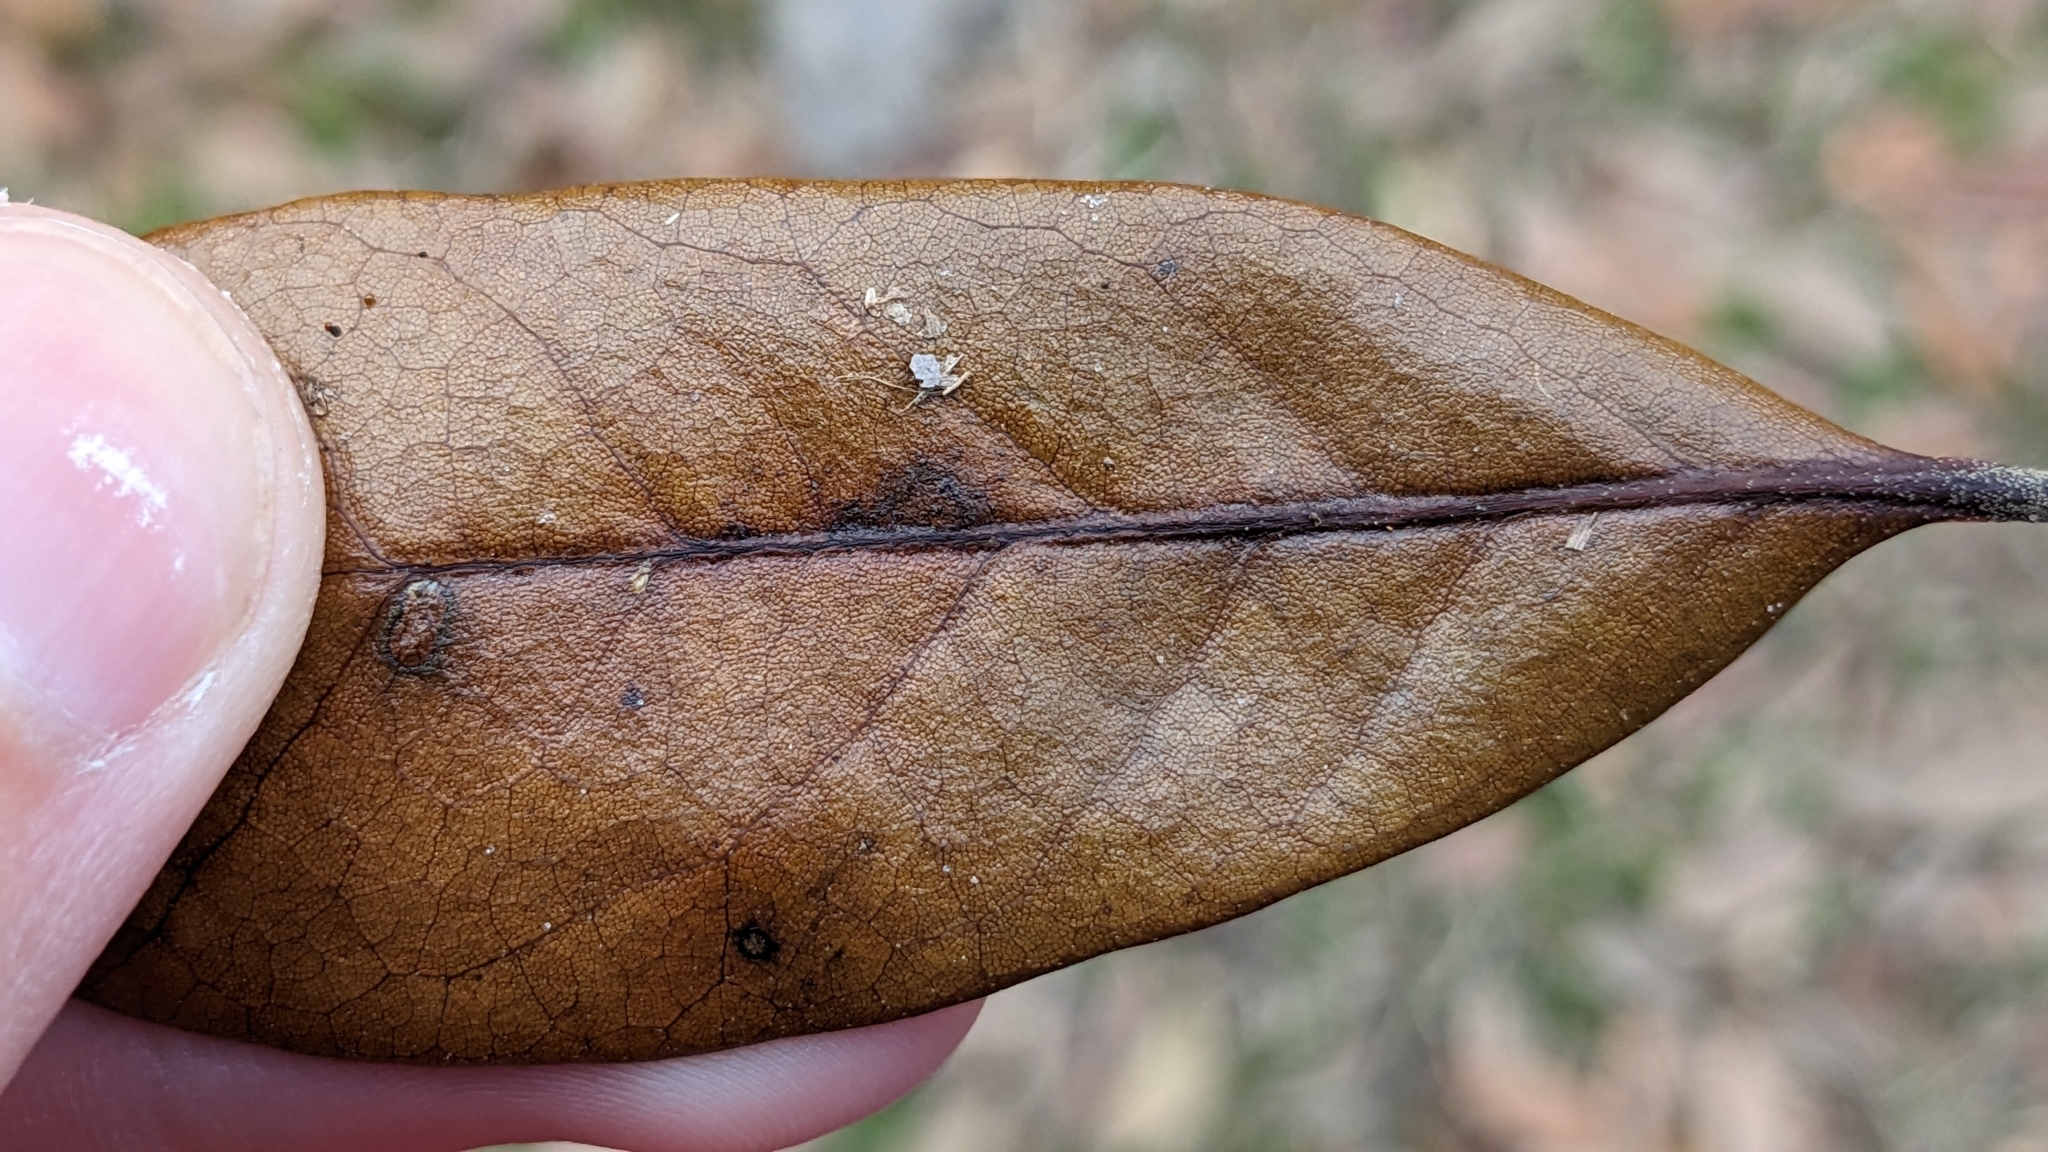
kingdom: Animalia
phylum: Arthropoda
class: Insecta
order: Hymenoptera
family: Cynipidae
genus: Andricus
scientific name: Andricus Druon quercuslanigerum
